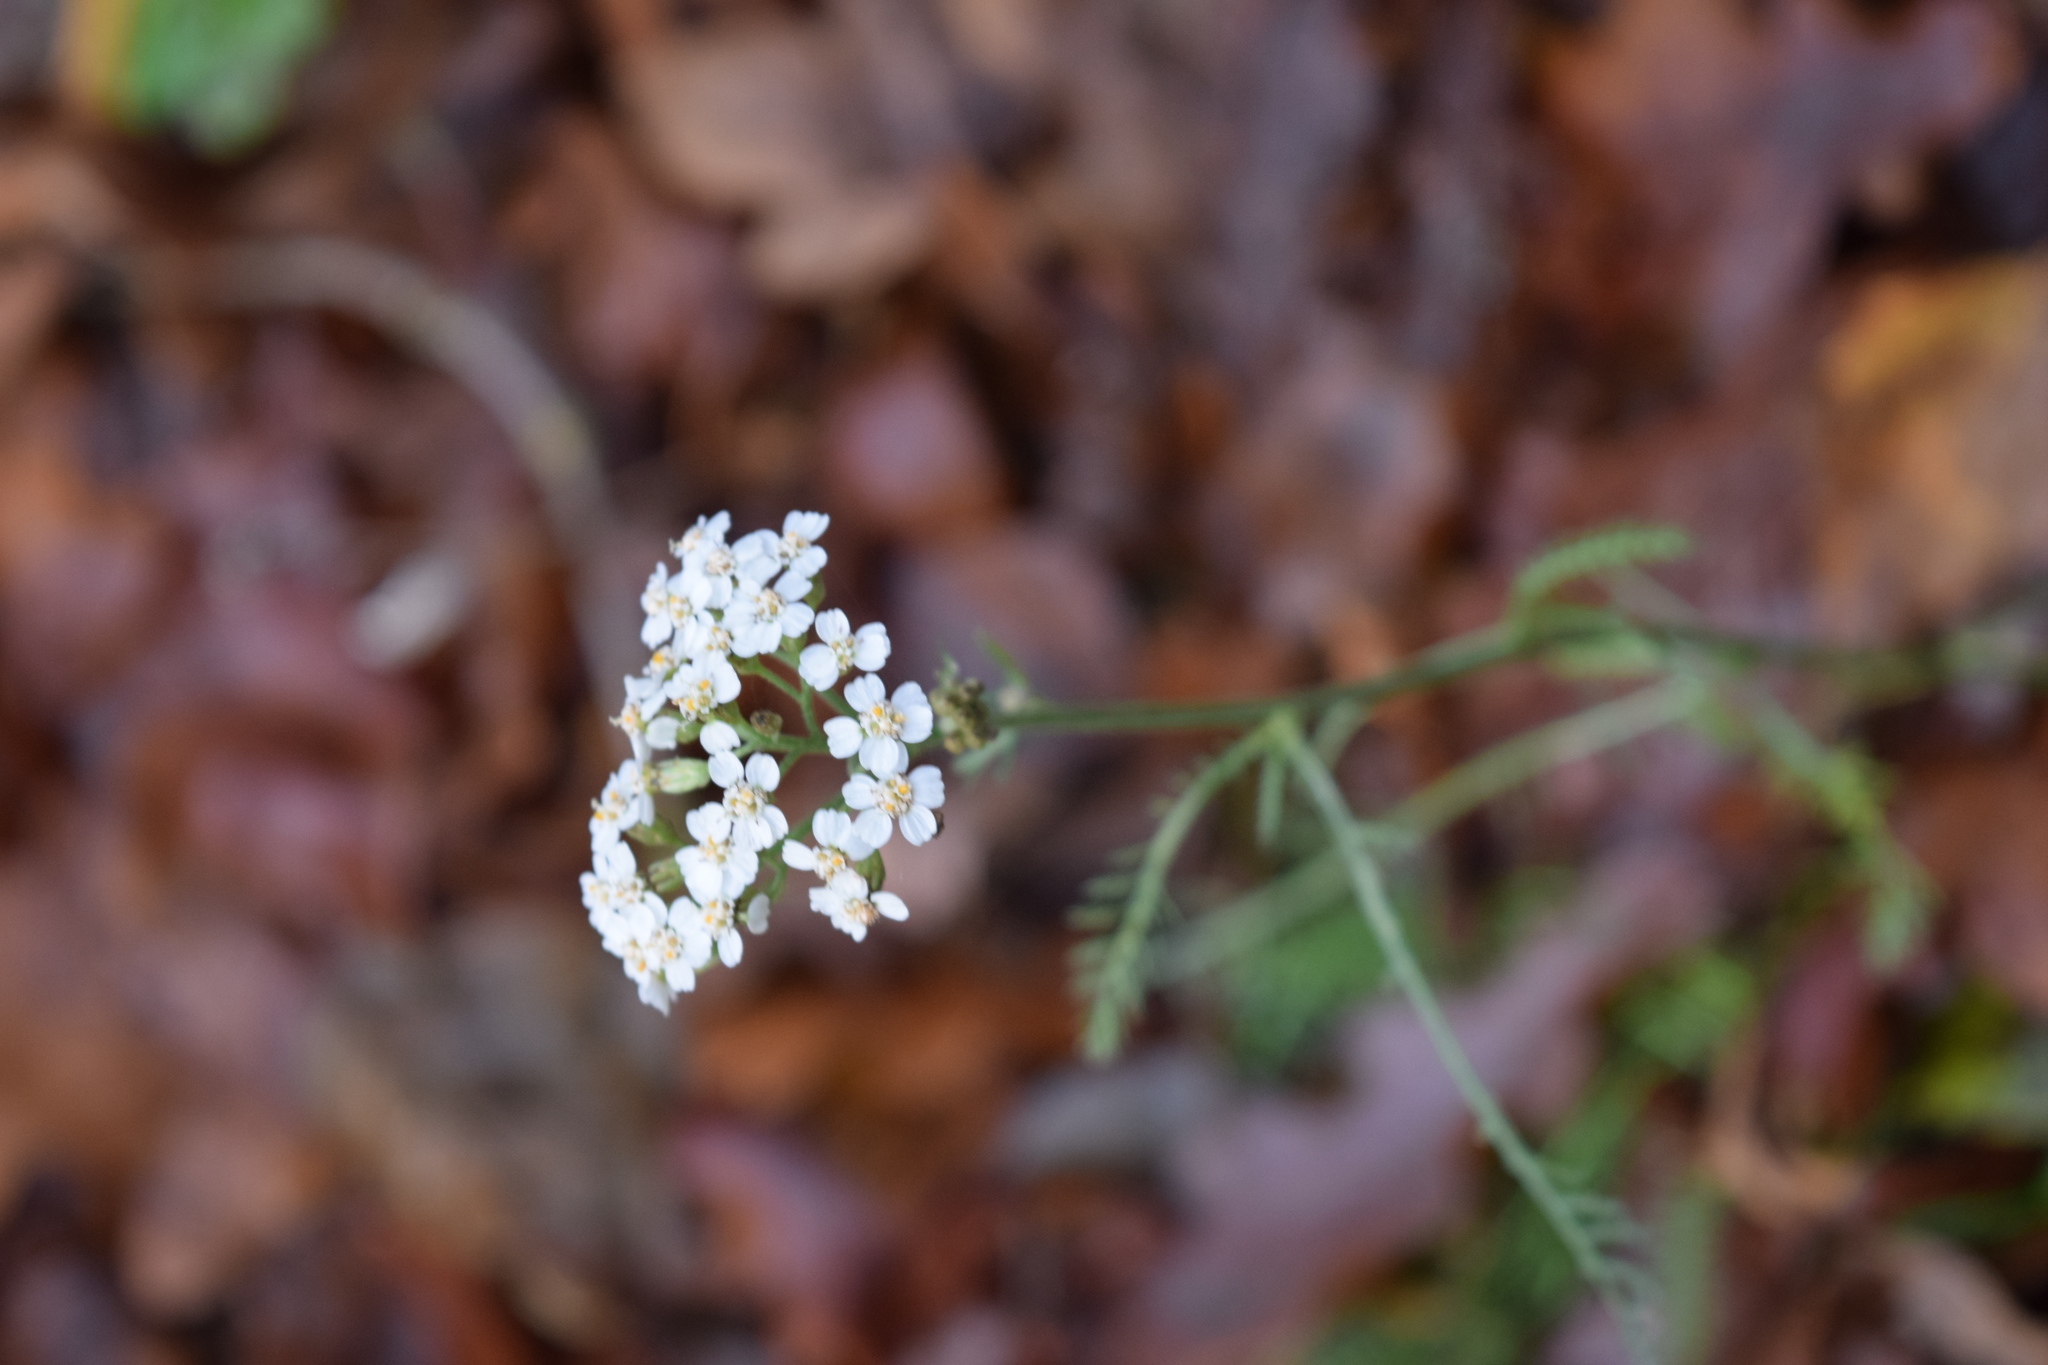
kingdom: Plantae
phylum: Tracheophyta
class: Magnoliopsida
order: Asterales
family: Asteraceae
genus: Achillea
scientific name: Achillea millefolium
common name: Yarrow
